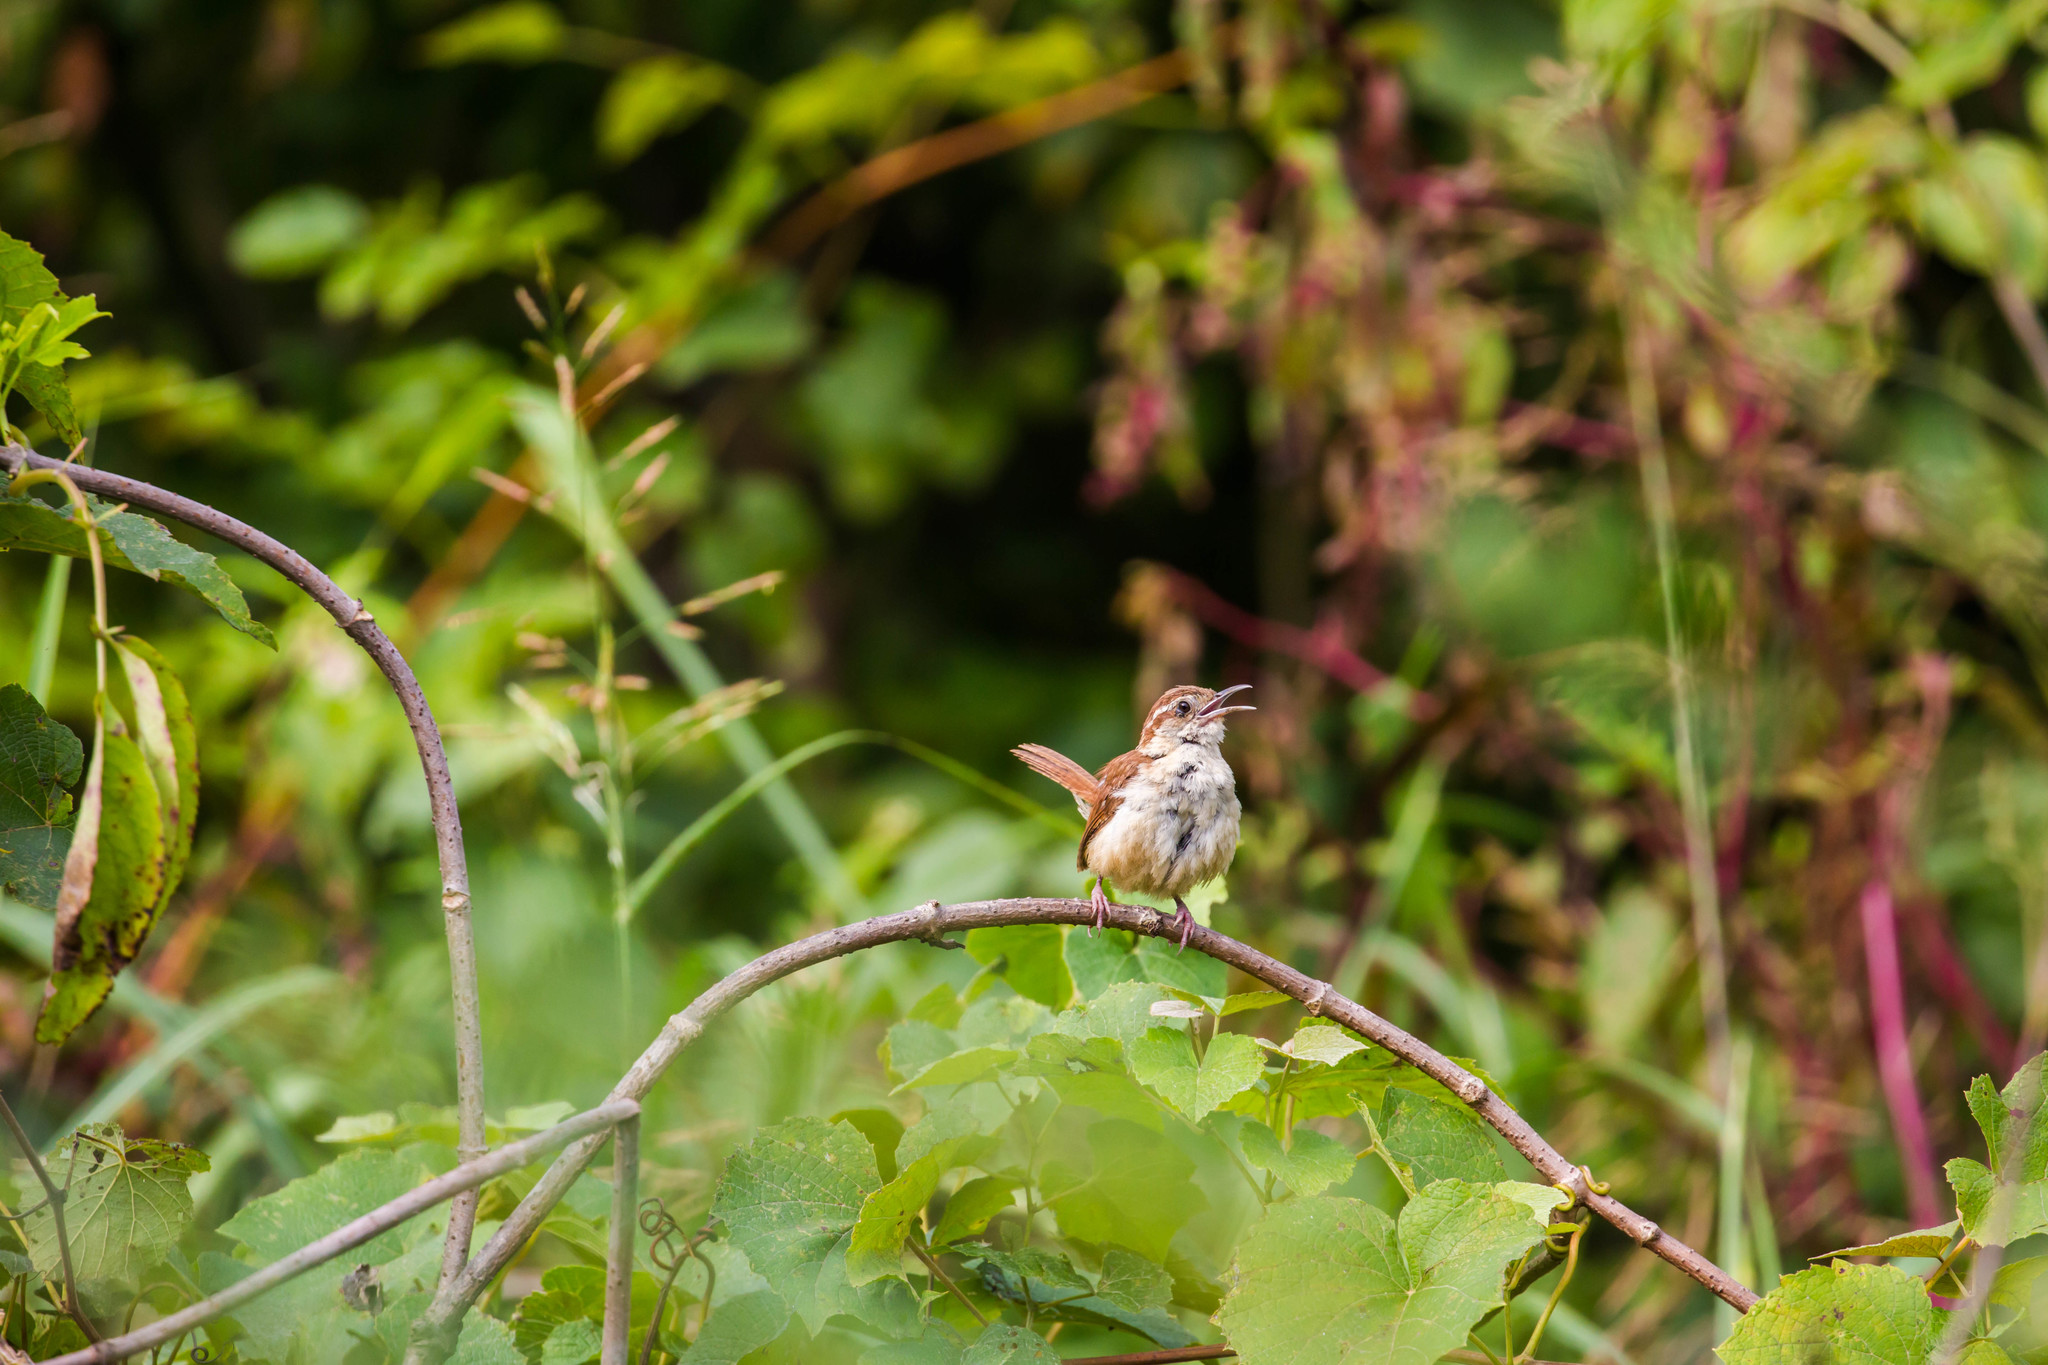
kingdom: Animalia
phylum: Chordata
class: Aves
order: Passeriformes
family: Troglodytidae
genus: Thryothorus
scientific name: Thryothorus ludovicianus
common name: Carolina wren
